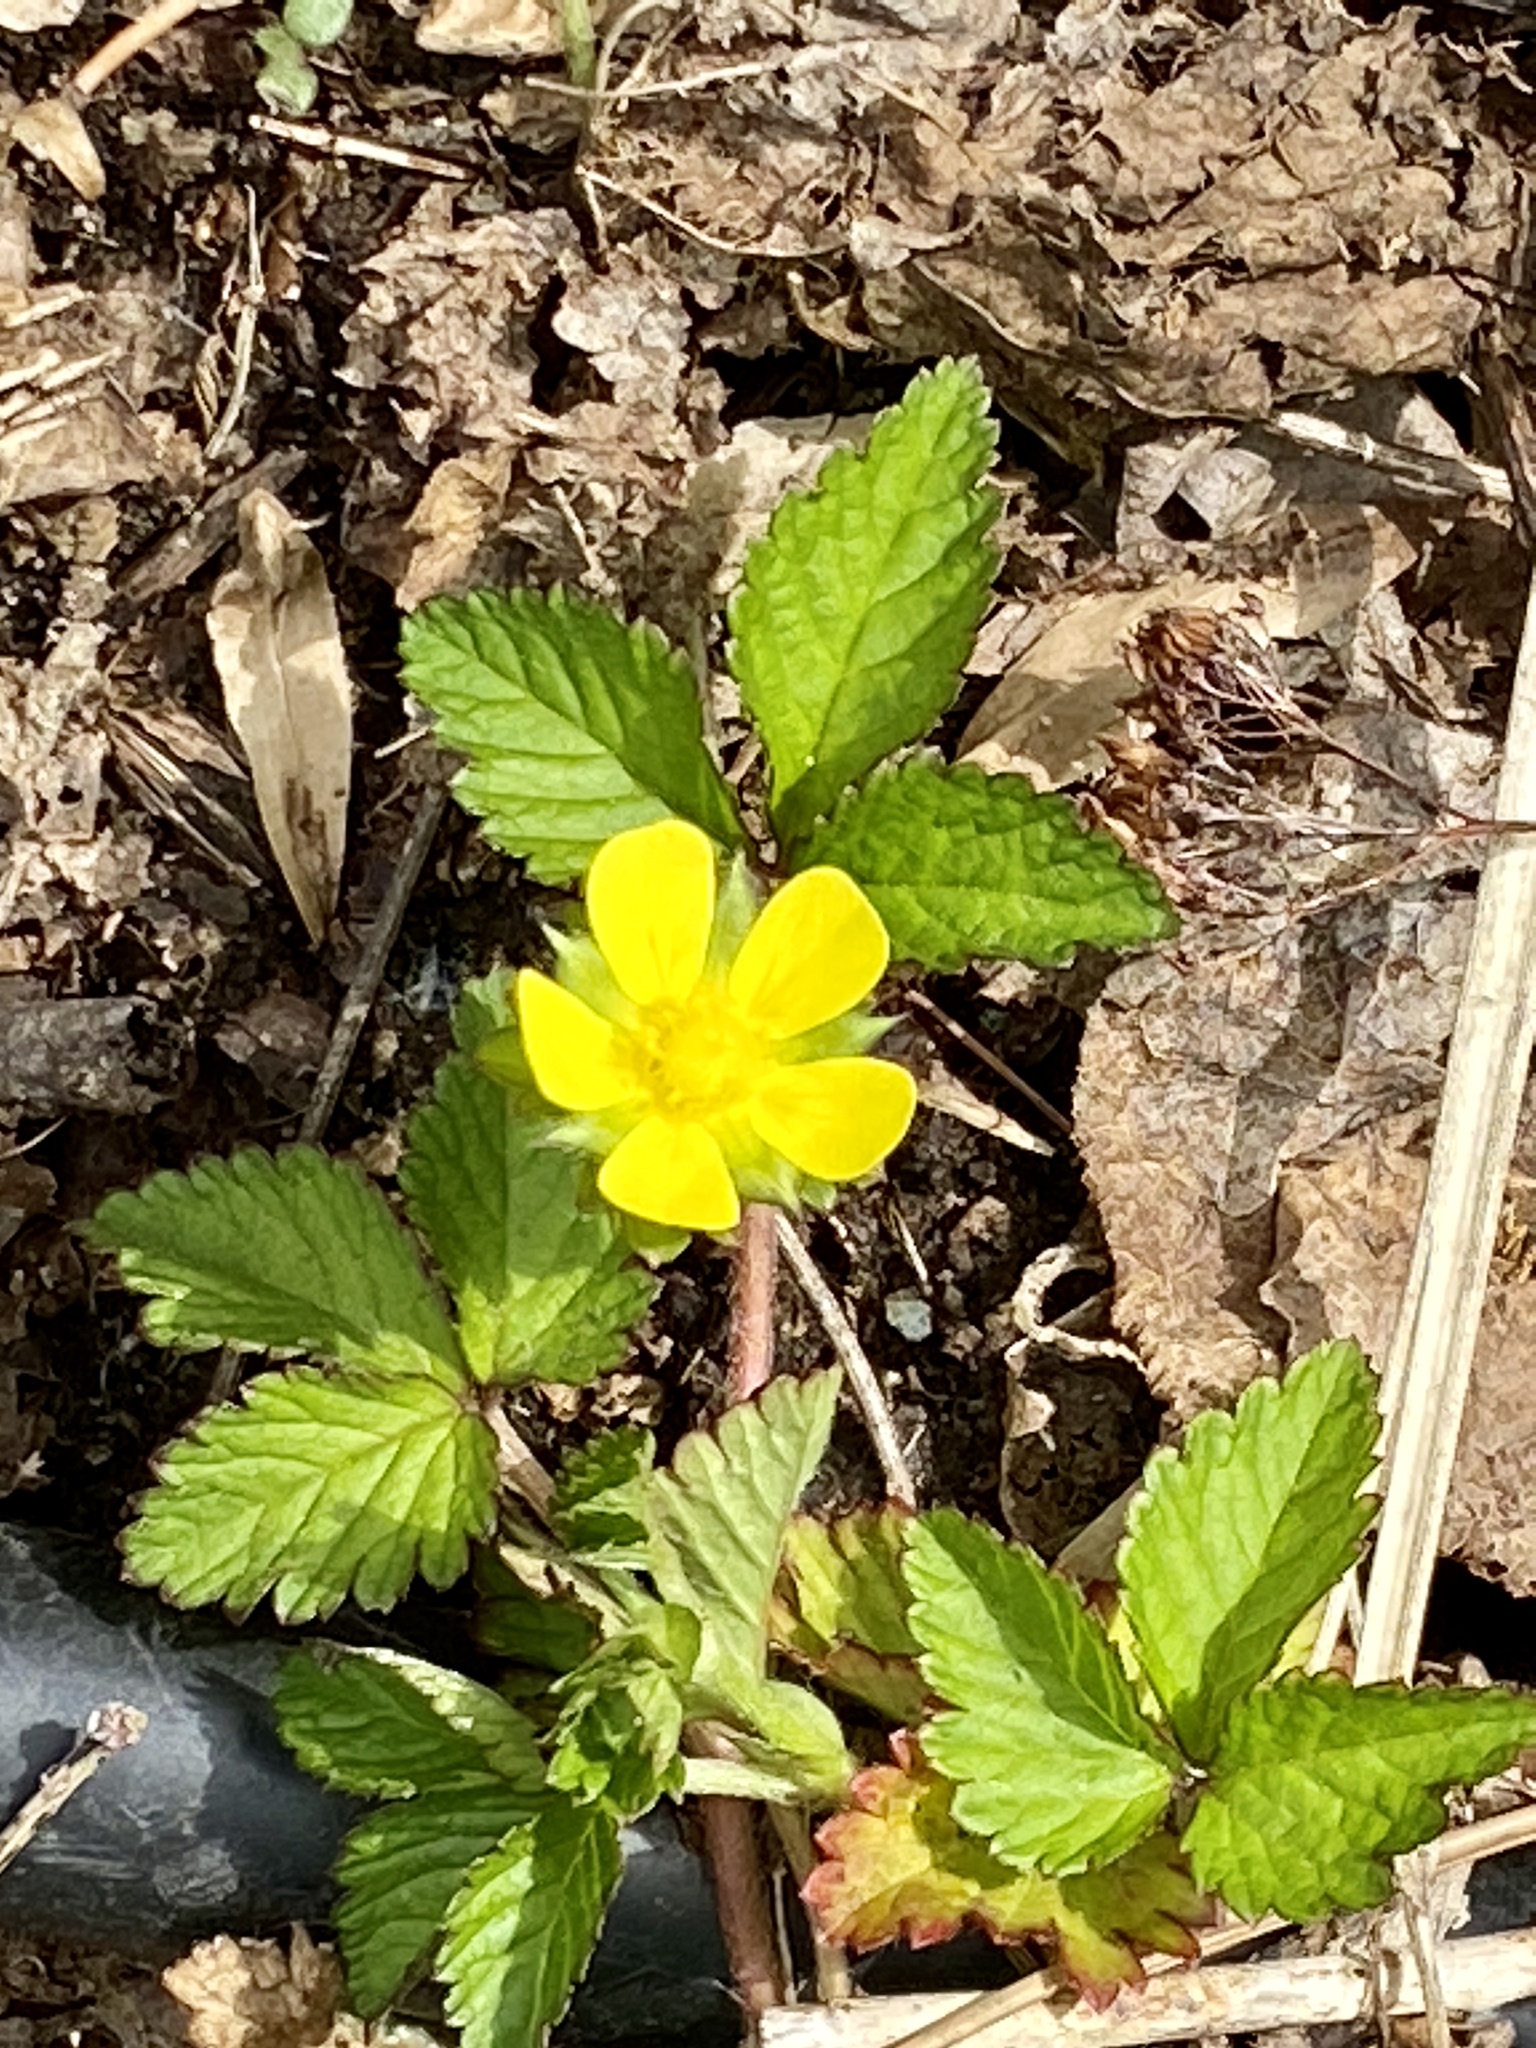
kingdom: Plantae
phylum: Tracheophyta
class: Magnoliopsida
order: Rosales
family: Rosaceae
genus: Potentilla
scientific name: Potentilla indica
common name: Yellow-flowered strawberry
